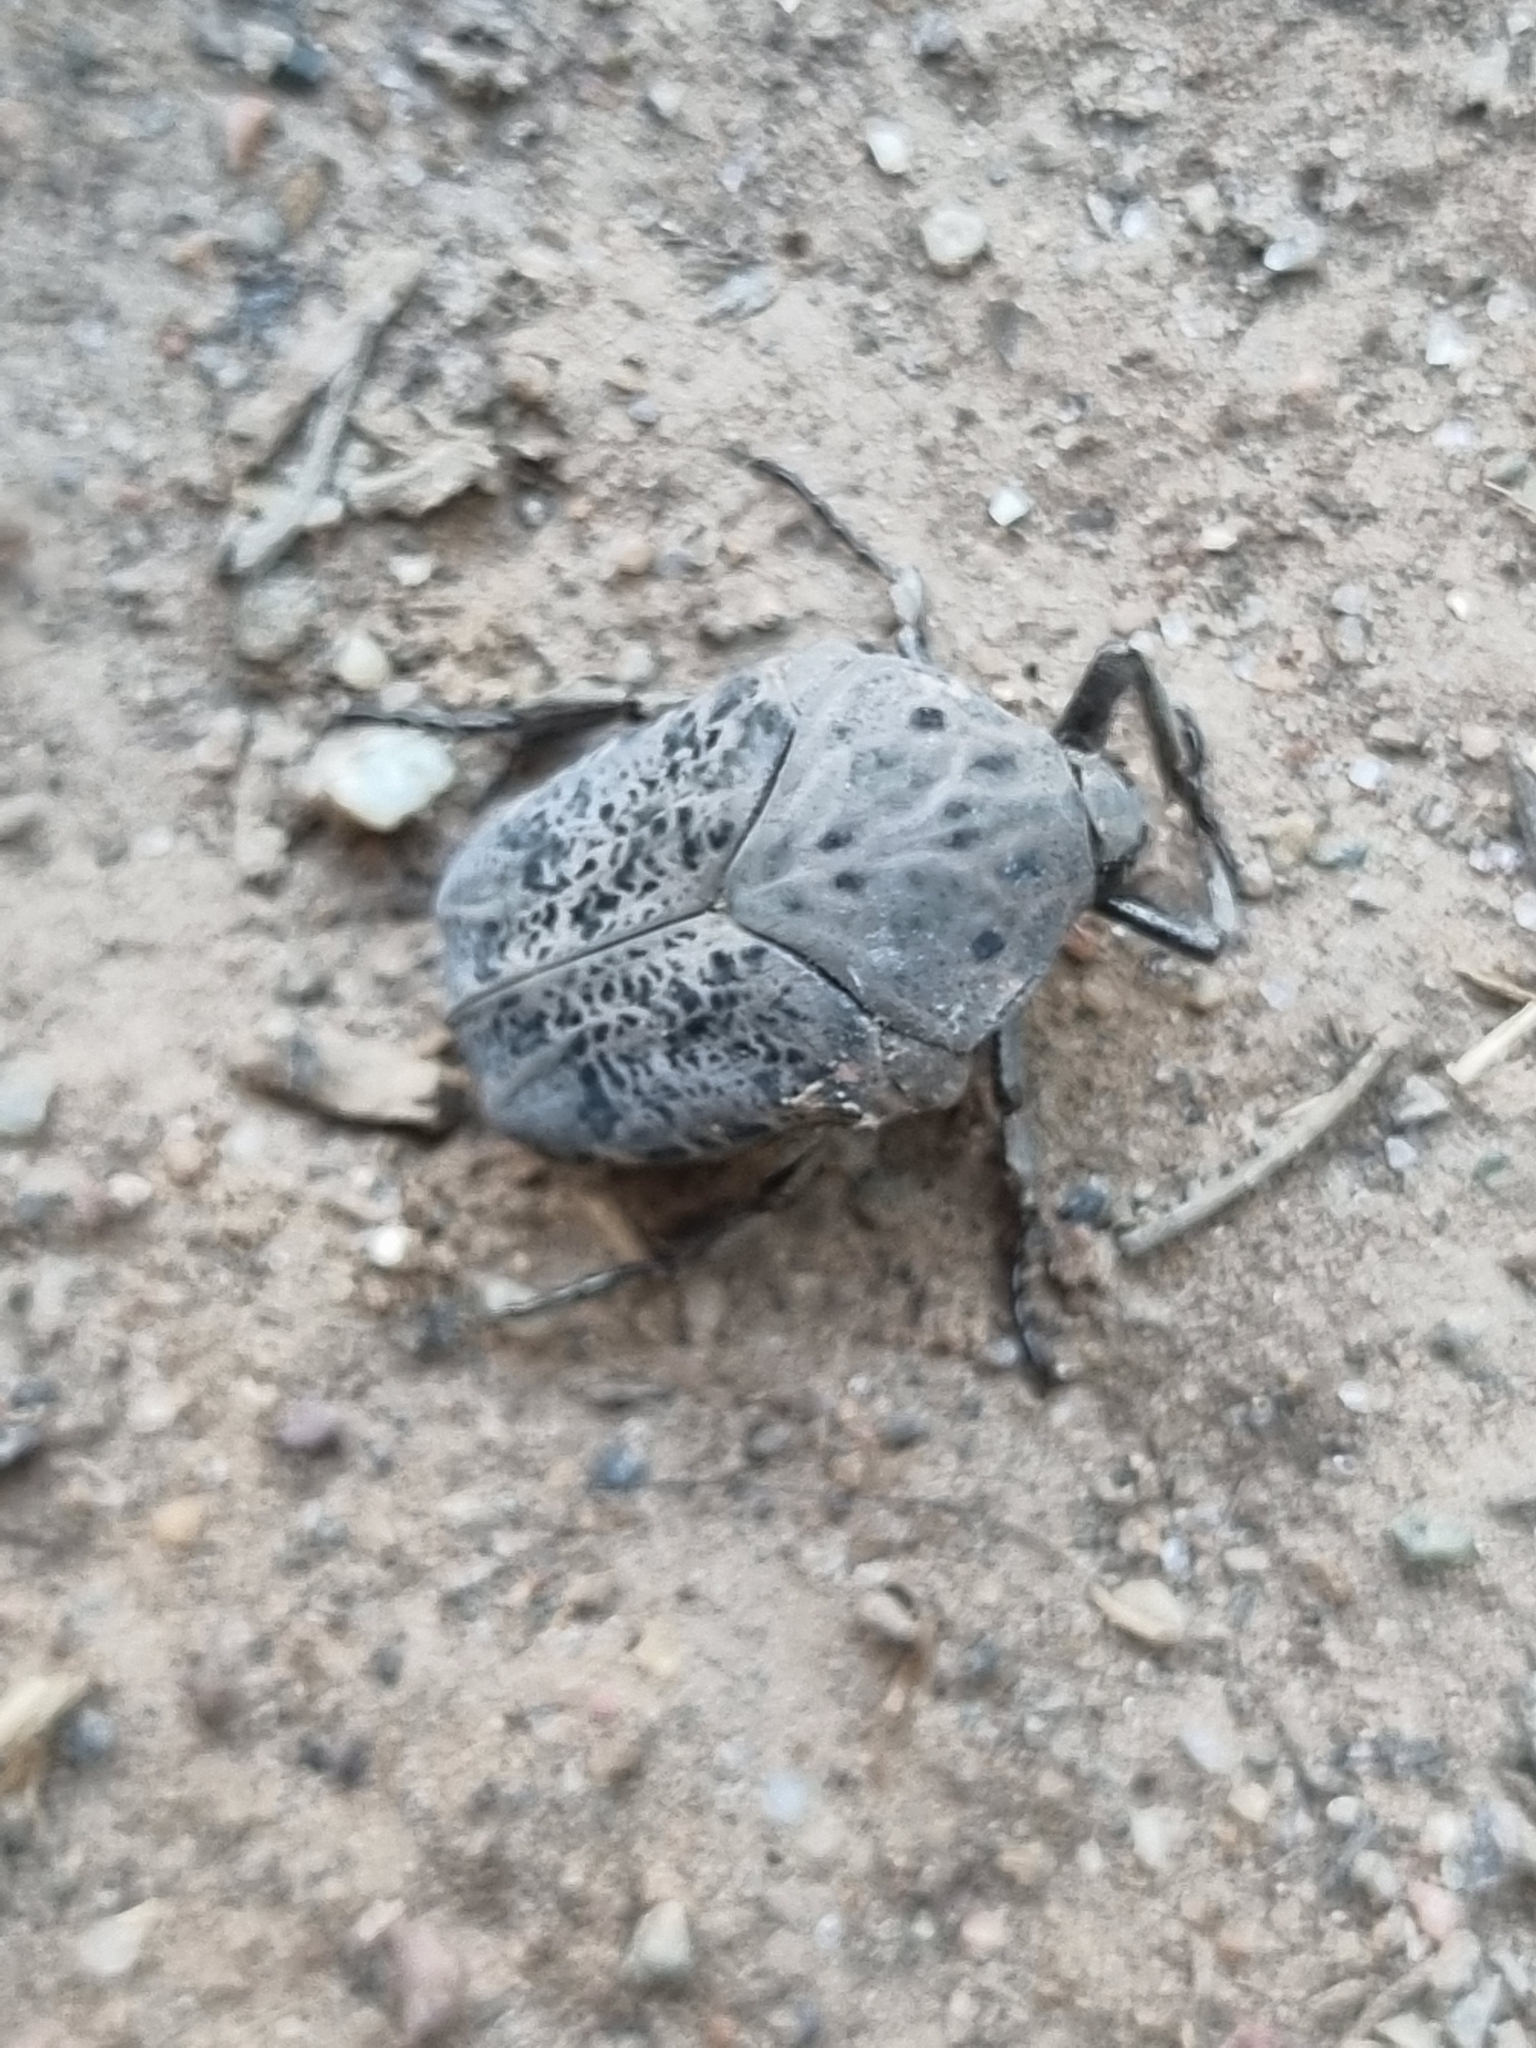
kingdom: Animalia
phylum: Arthropoda
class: Insecta
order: Coleoptera
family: Scarabaeidae
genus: Gymnetis
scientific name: Gymnetis litigiosa
